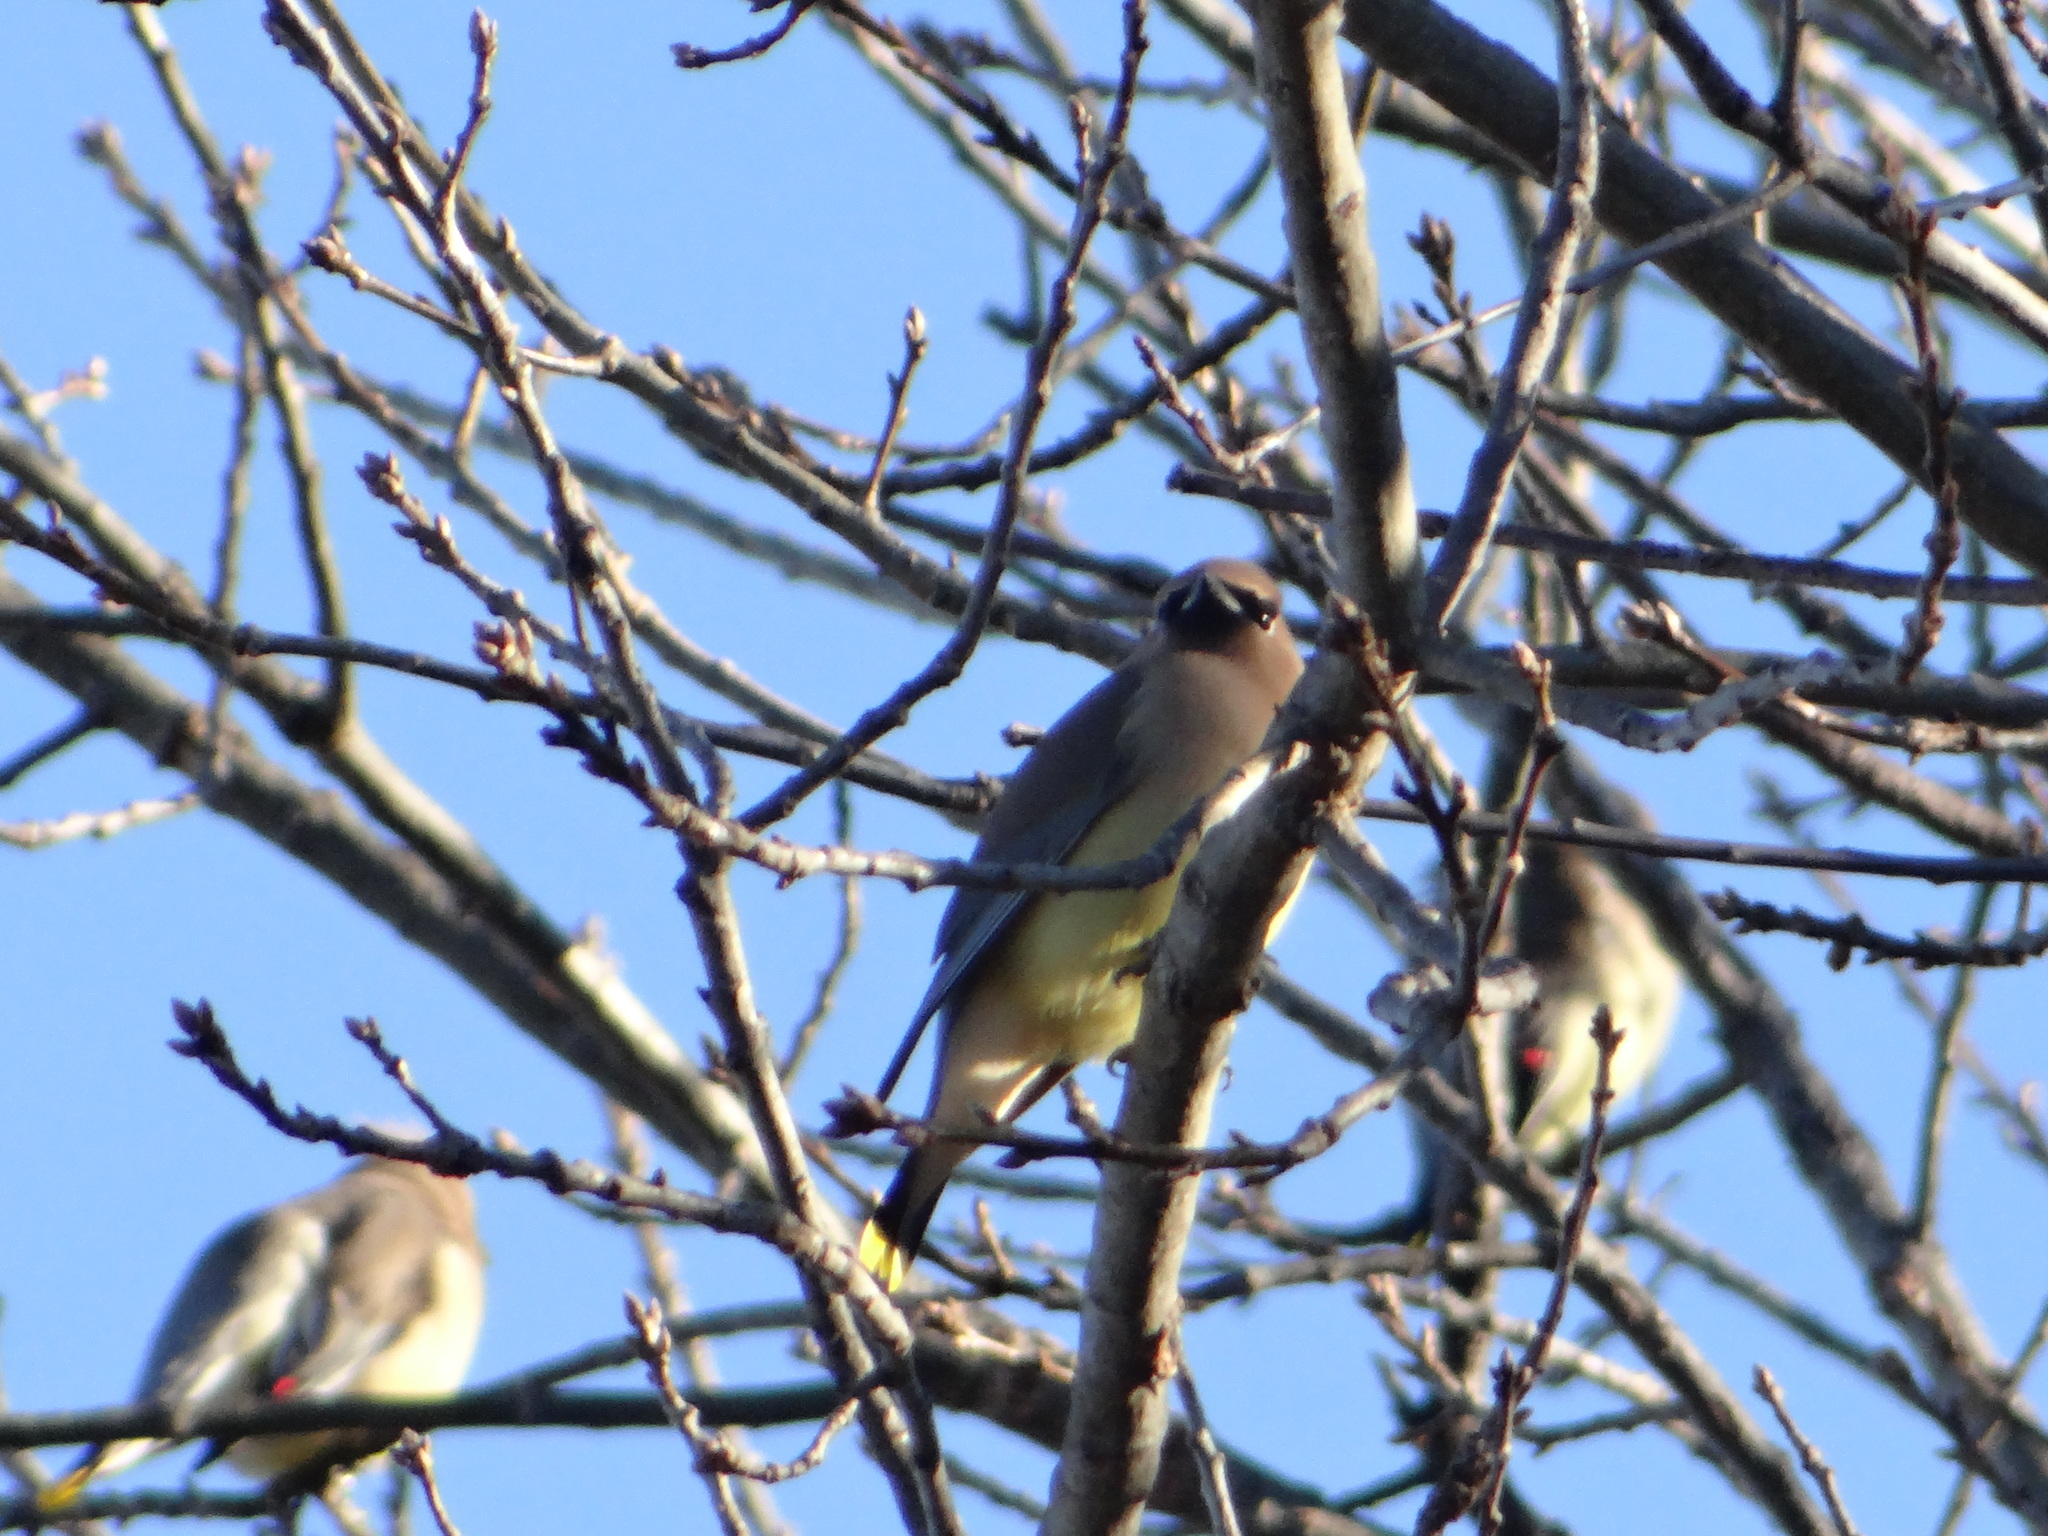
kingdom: Animalia
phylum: Chordata
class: Aves
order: Passeriformes
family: Bombycillidae
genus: Bombycilla
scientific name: Bombycilla cedrorum
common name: Cedar waxwing
